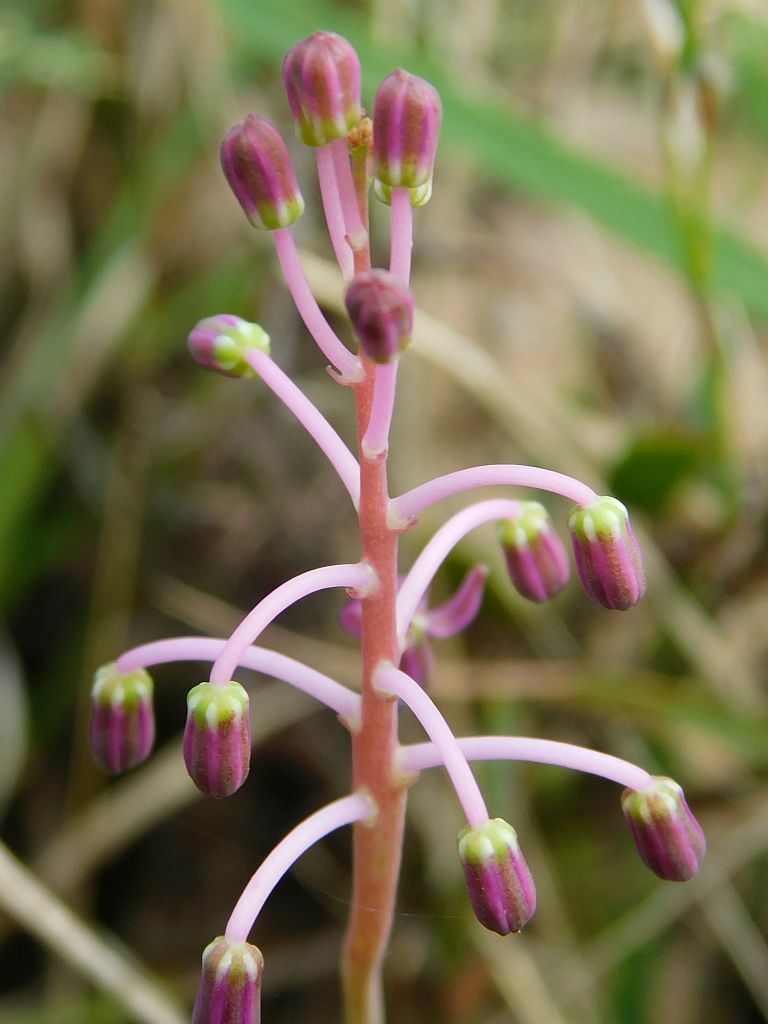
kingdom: Plantae
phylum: Tracheophyta
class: Liliopsida
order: Asparagales
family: Asparagaceae
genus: Ledebouria
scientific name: Ledebouria ovalifolia
